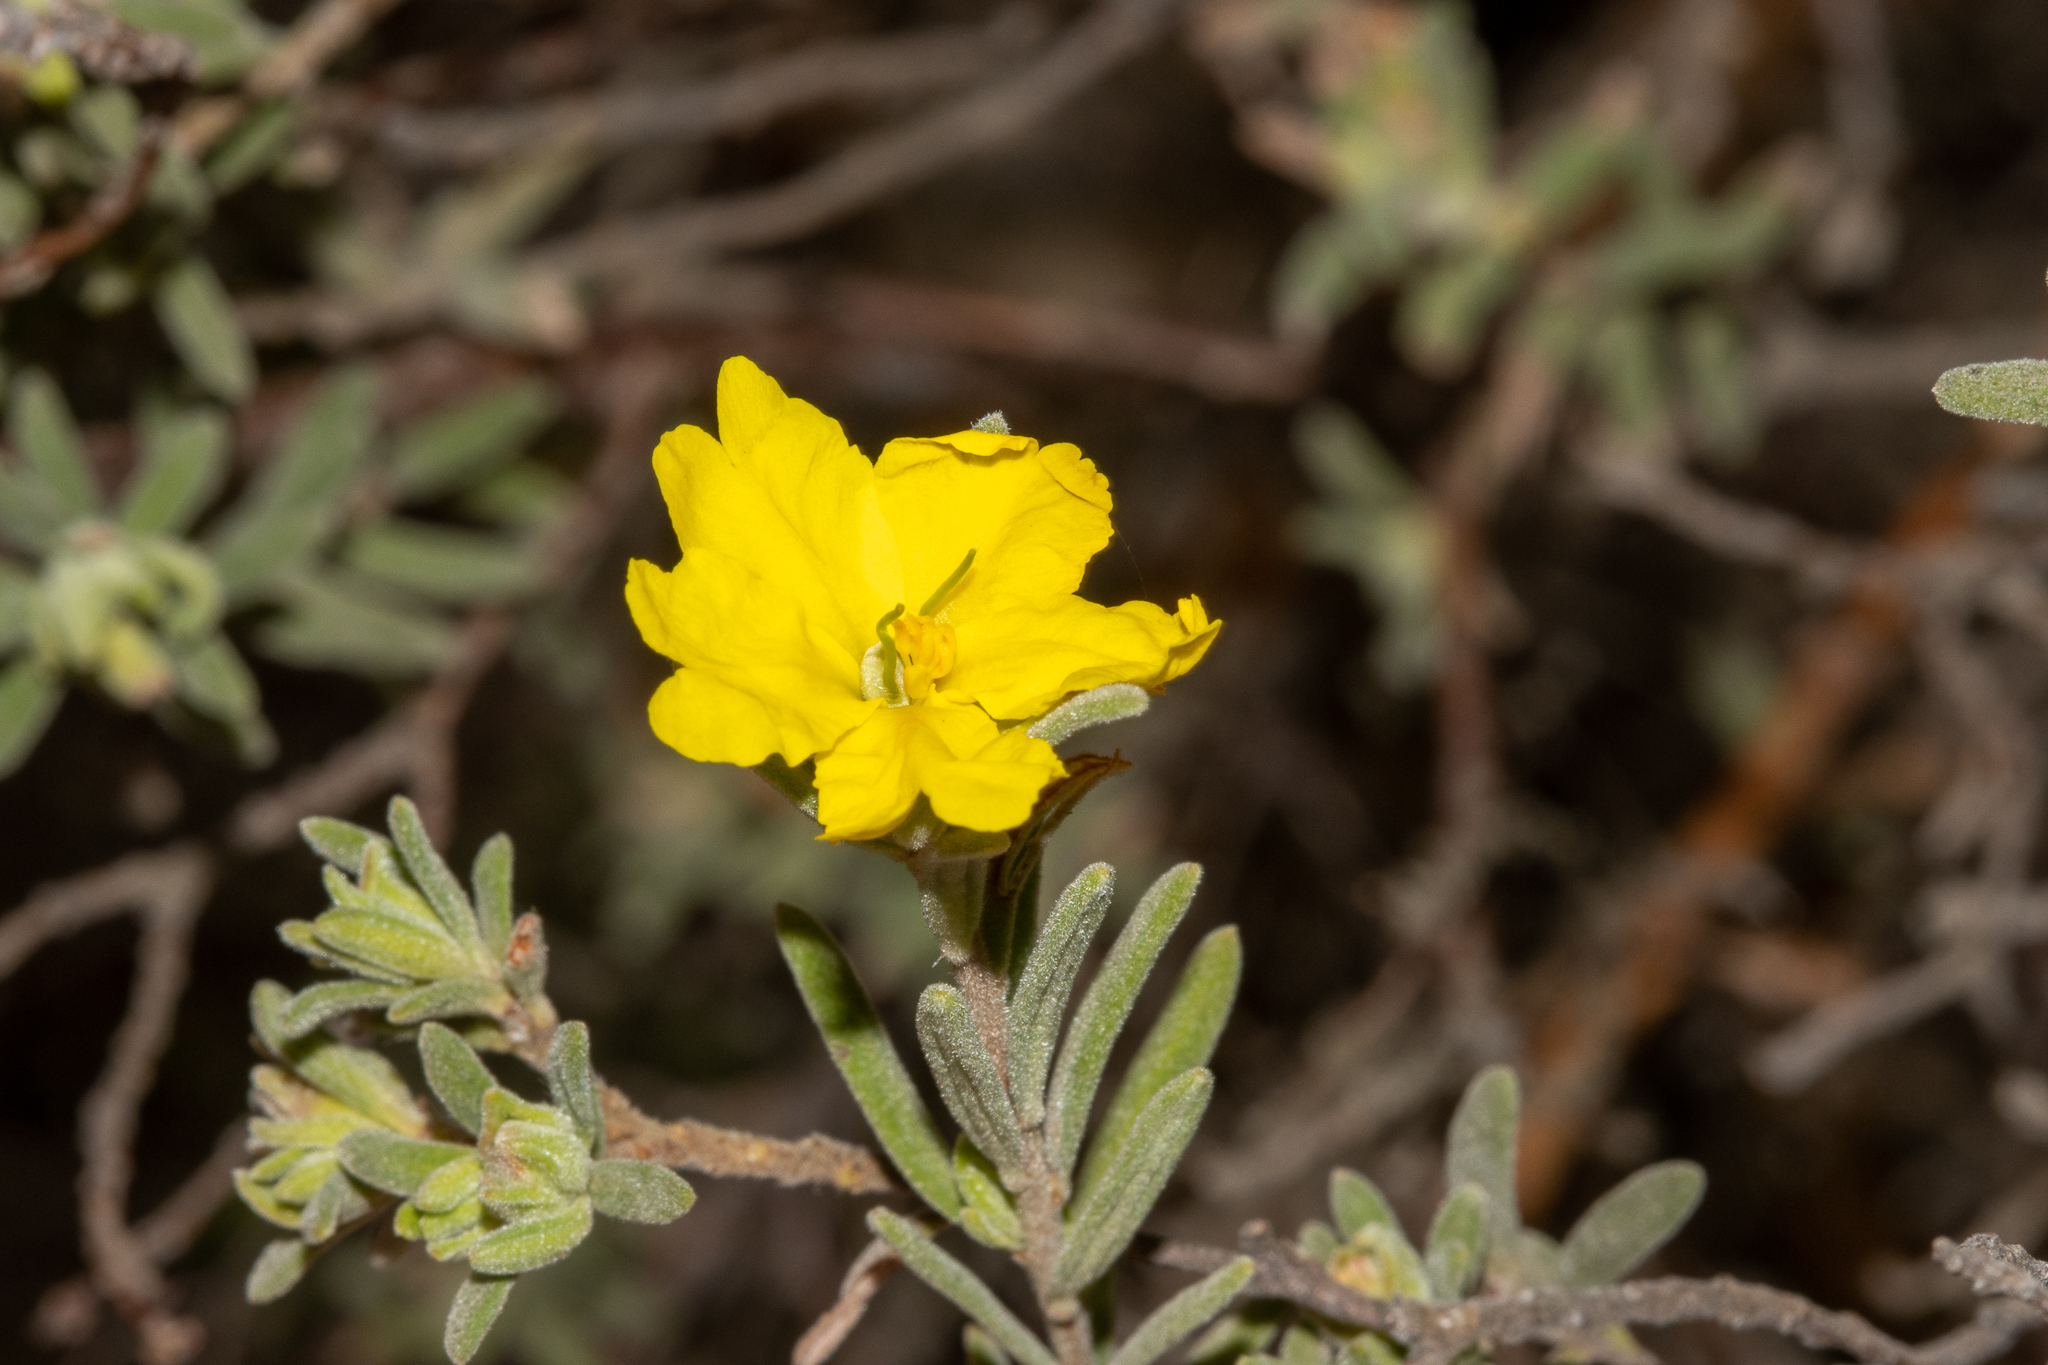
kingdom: Plantae
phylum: Tracheophyta
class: Magnoliopsida
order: Dilleniales
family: Dilleniaceae
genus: Hibbertia
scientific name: Hibbertia crinita
